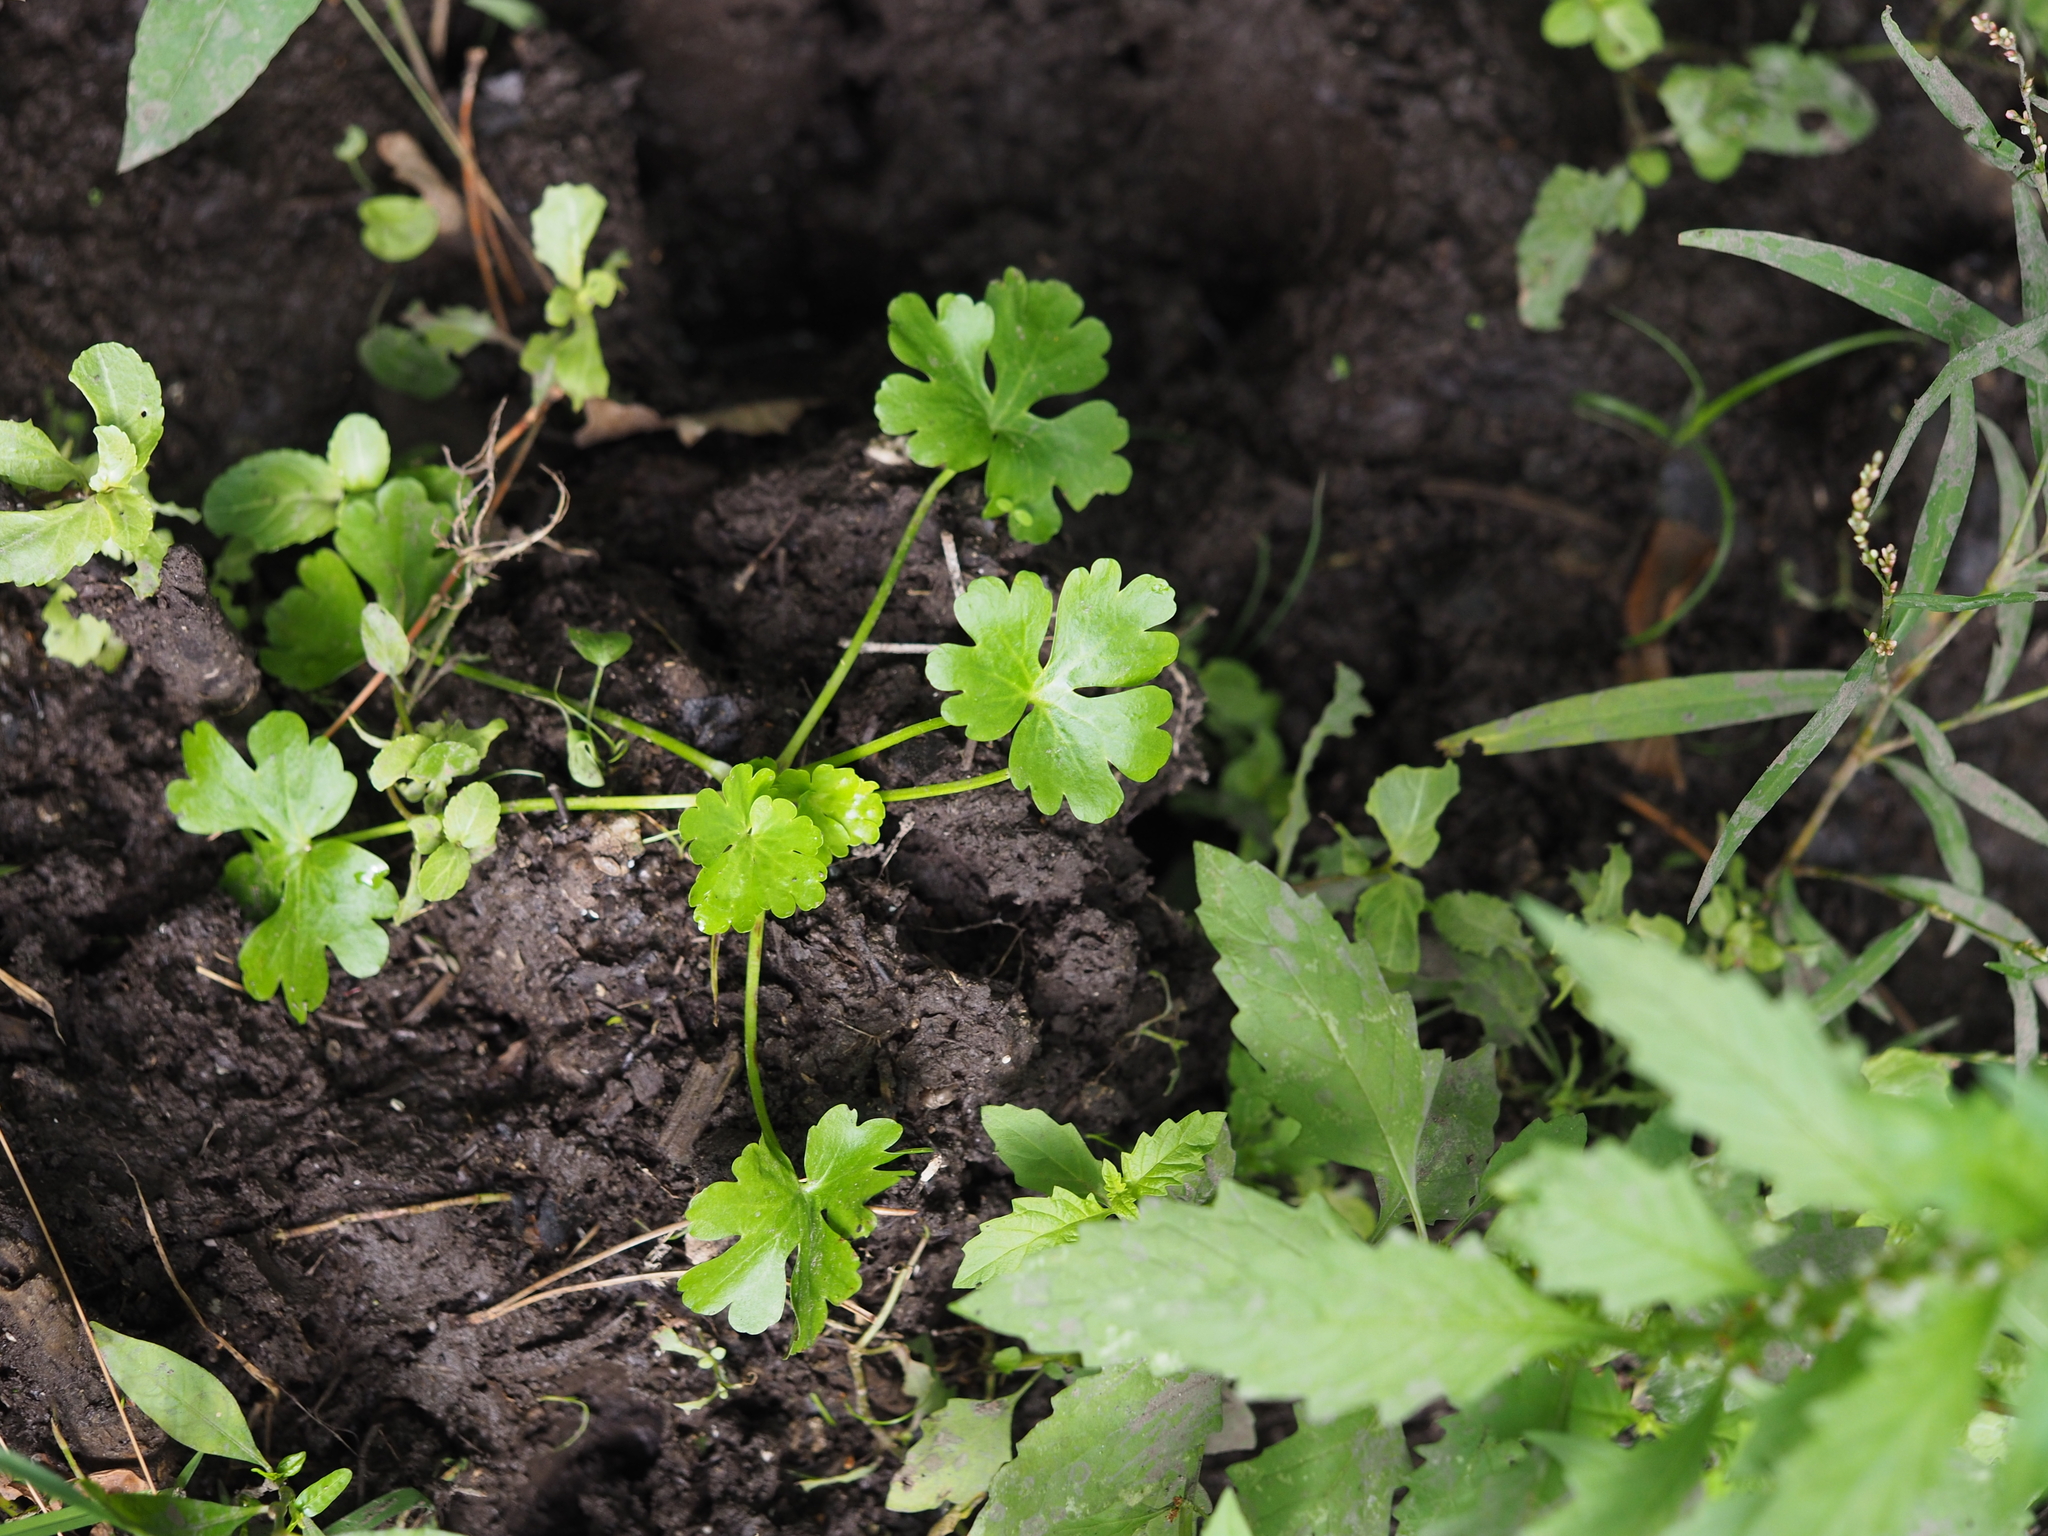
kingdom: Plantae
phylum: Tracheophyta
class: Magnoliopsida
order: Ranunculales
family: Ranunculaceae
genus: Ranunculus
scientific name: Ranunculus sceleratus
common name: Celery-leaved buttercup
